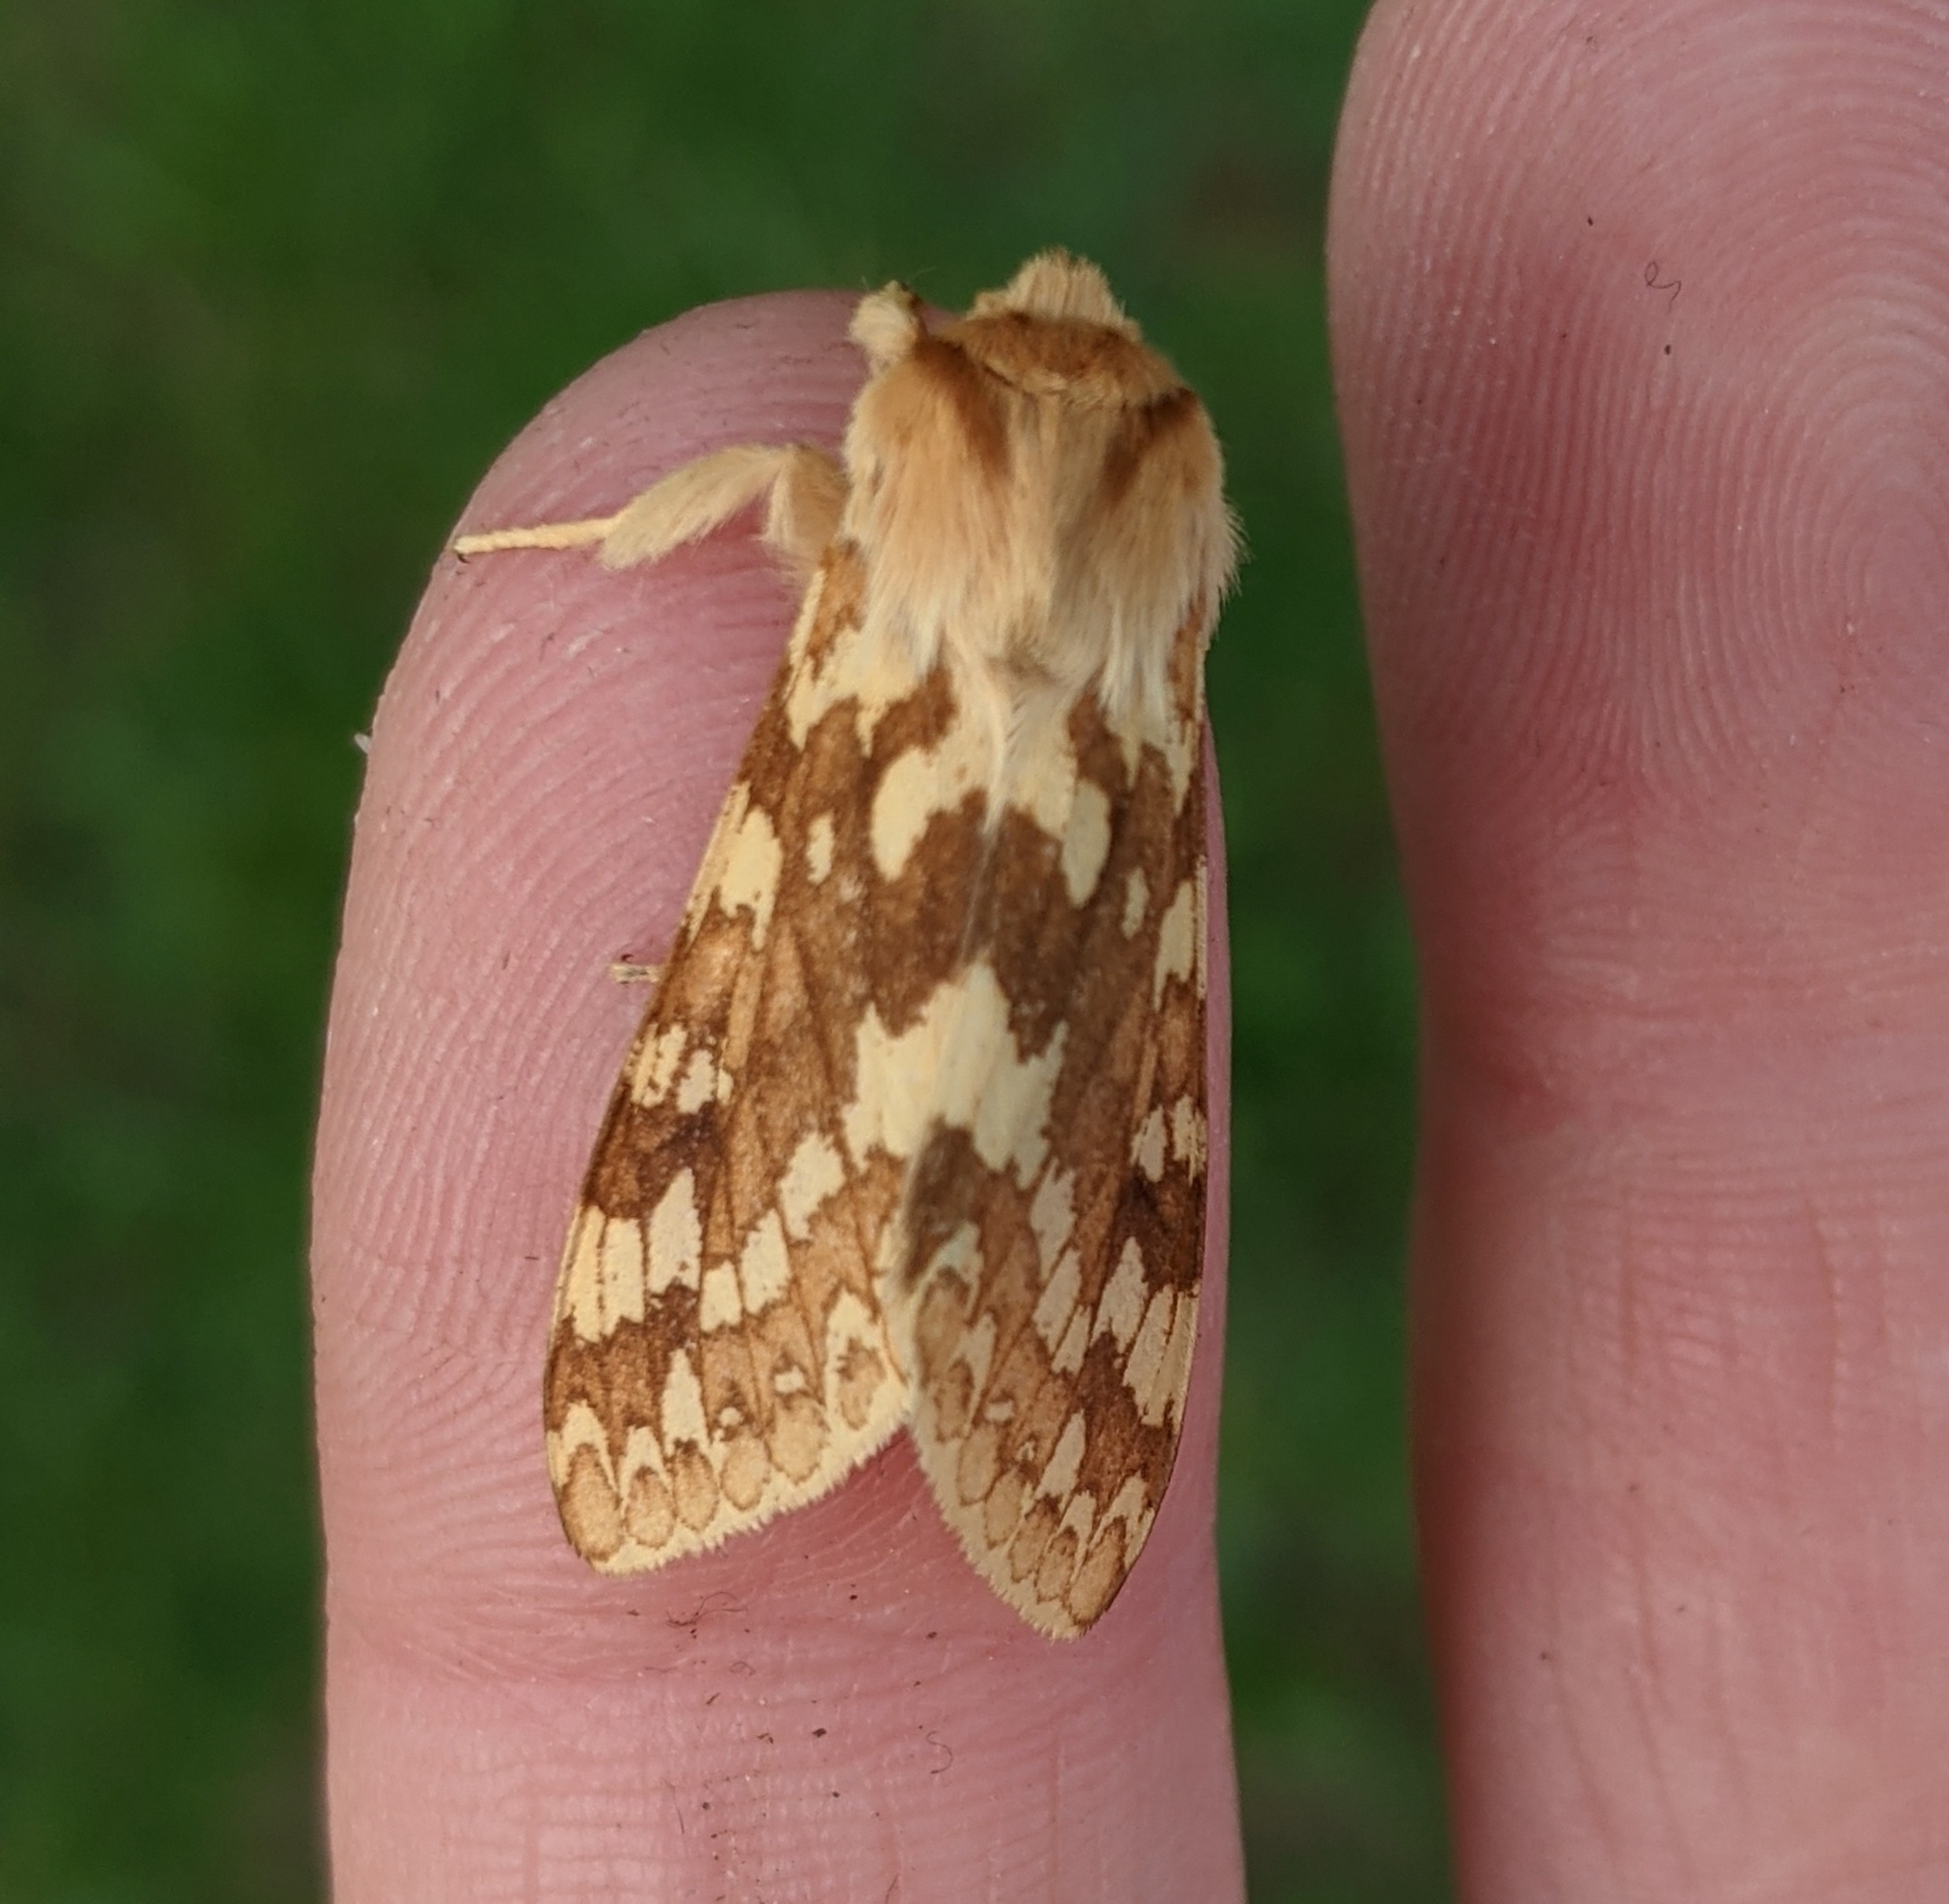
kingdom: Animalia
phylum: Arthropoda
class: Insecta
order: Lepidoptera
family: Erebidae
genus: Lophocampa
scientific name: Lophocampa maculata
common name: Spotted tussock moth
